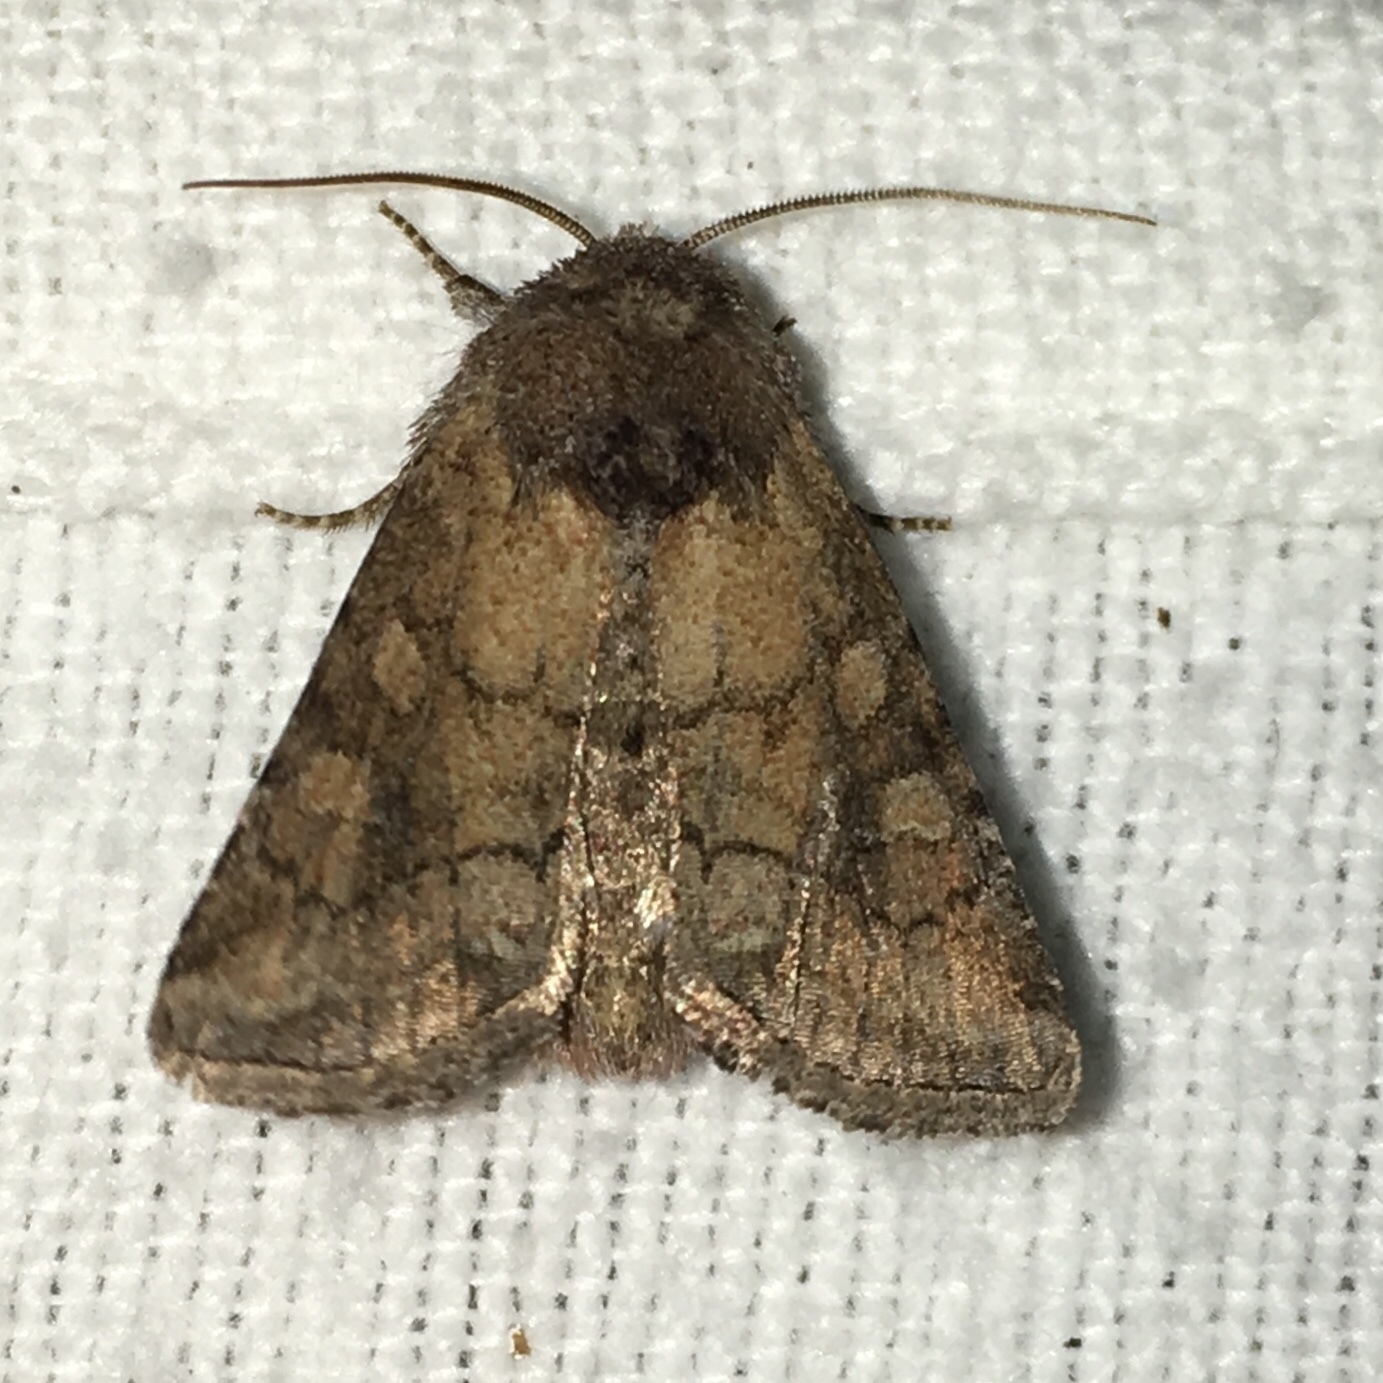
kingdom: Animalia
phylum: Arthropoda
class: Insecta
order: Lepidoptera
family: Noctuidae
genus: Lacinipolia
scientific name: Lacinipolia meditata
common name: Thinker moth
